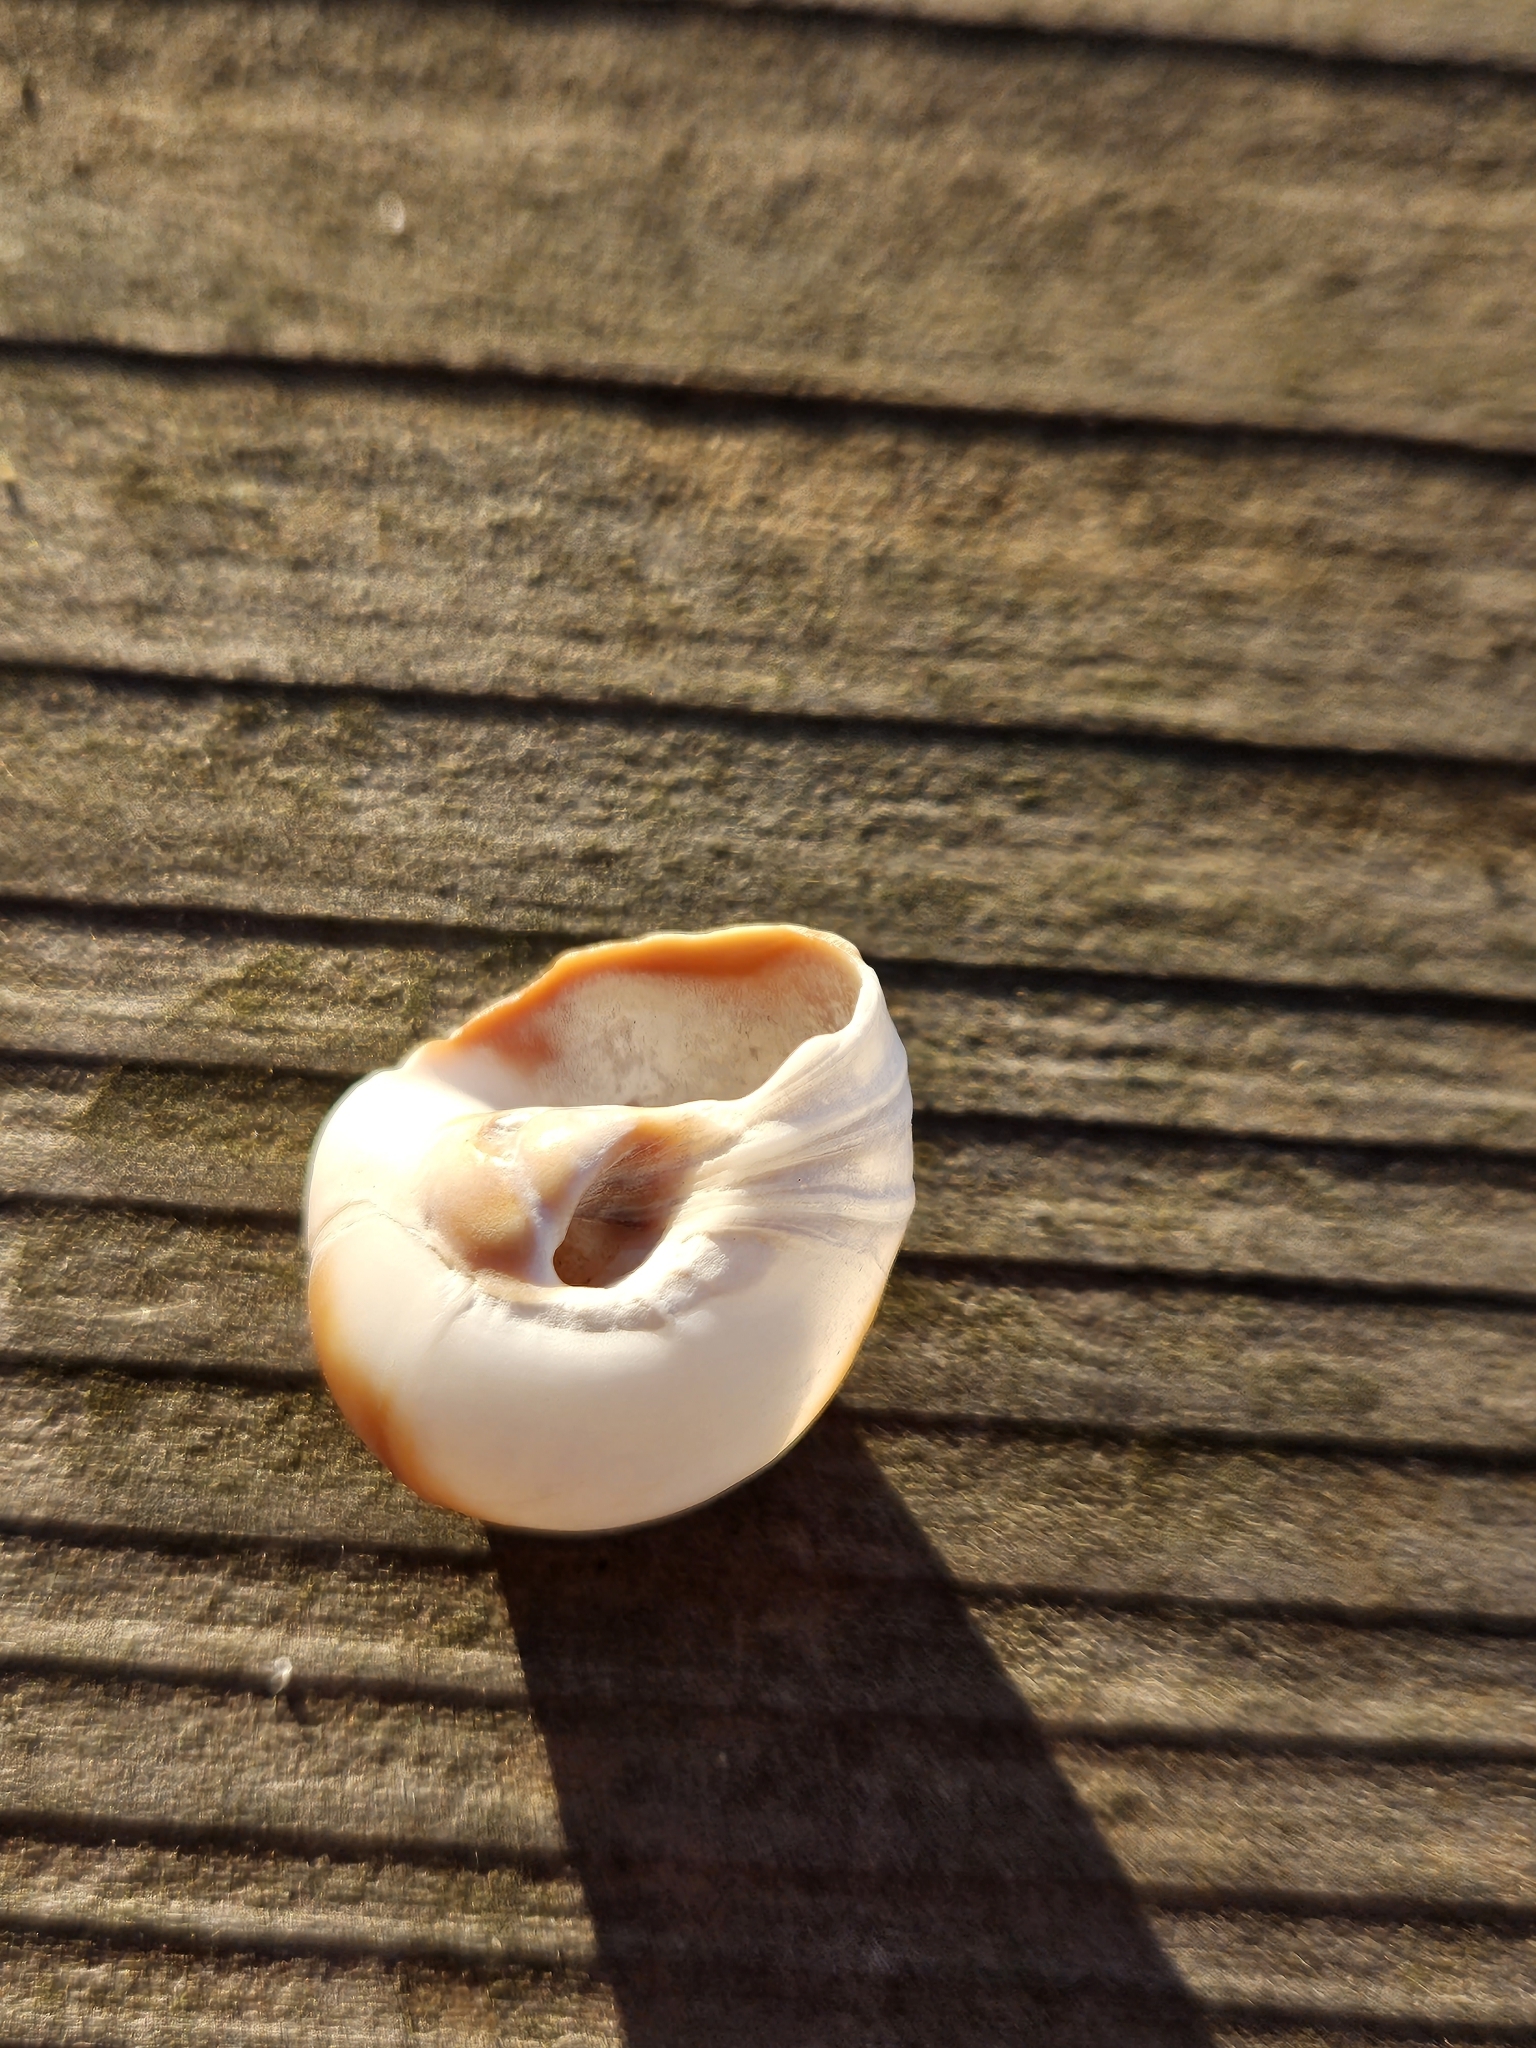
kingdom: Animalia
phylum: Mollusca
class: Gastropoda
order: Littorinimorpha
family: Naticidae
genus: Glossaulax
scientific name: Glossaulax reclusiana
